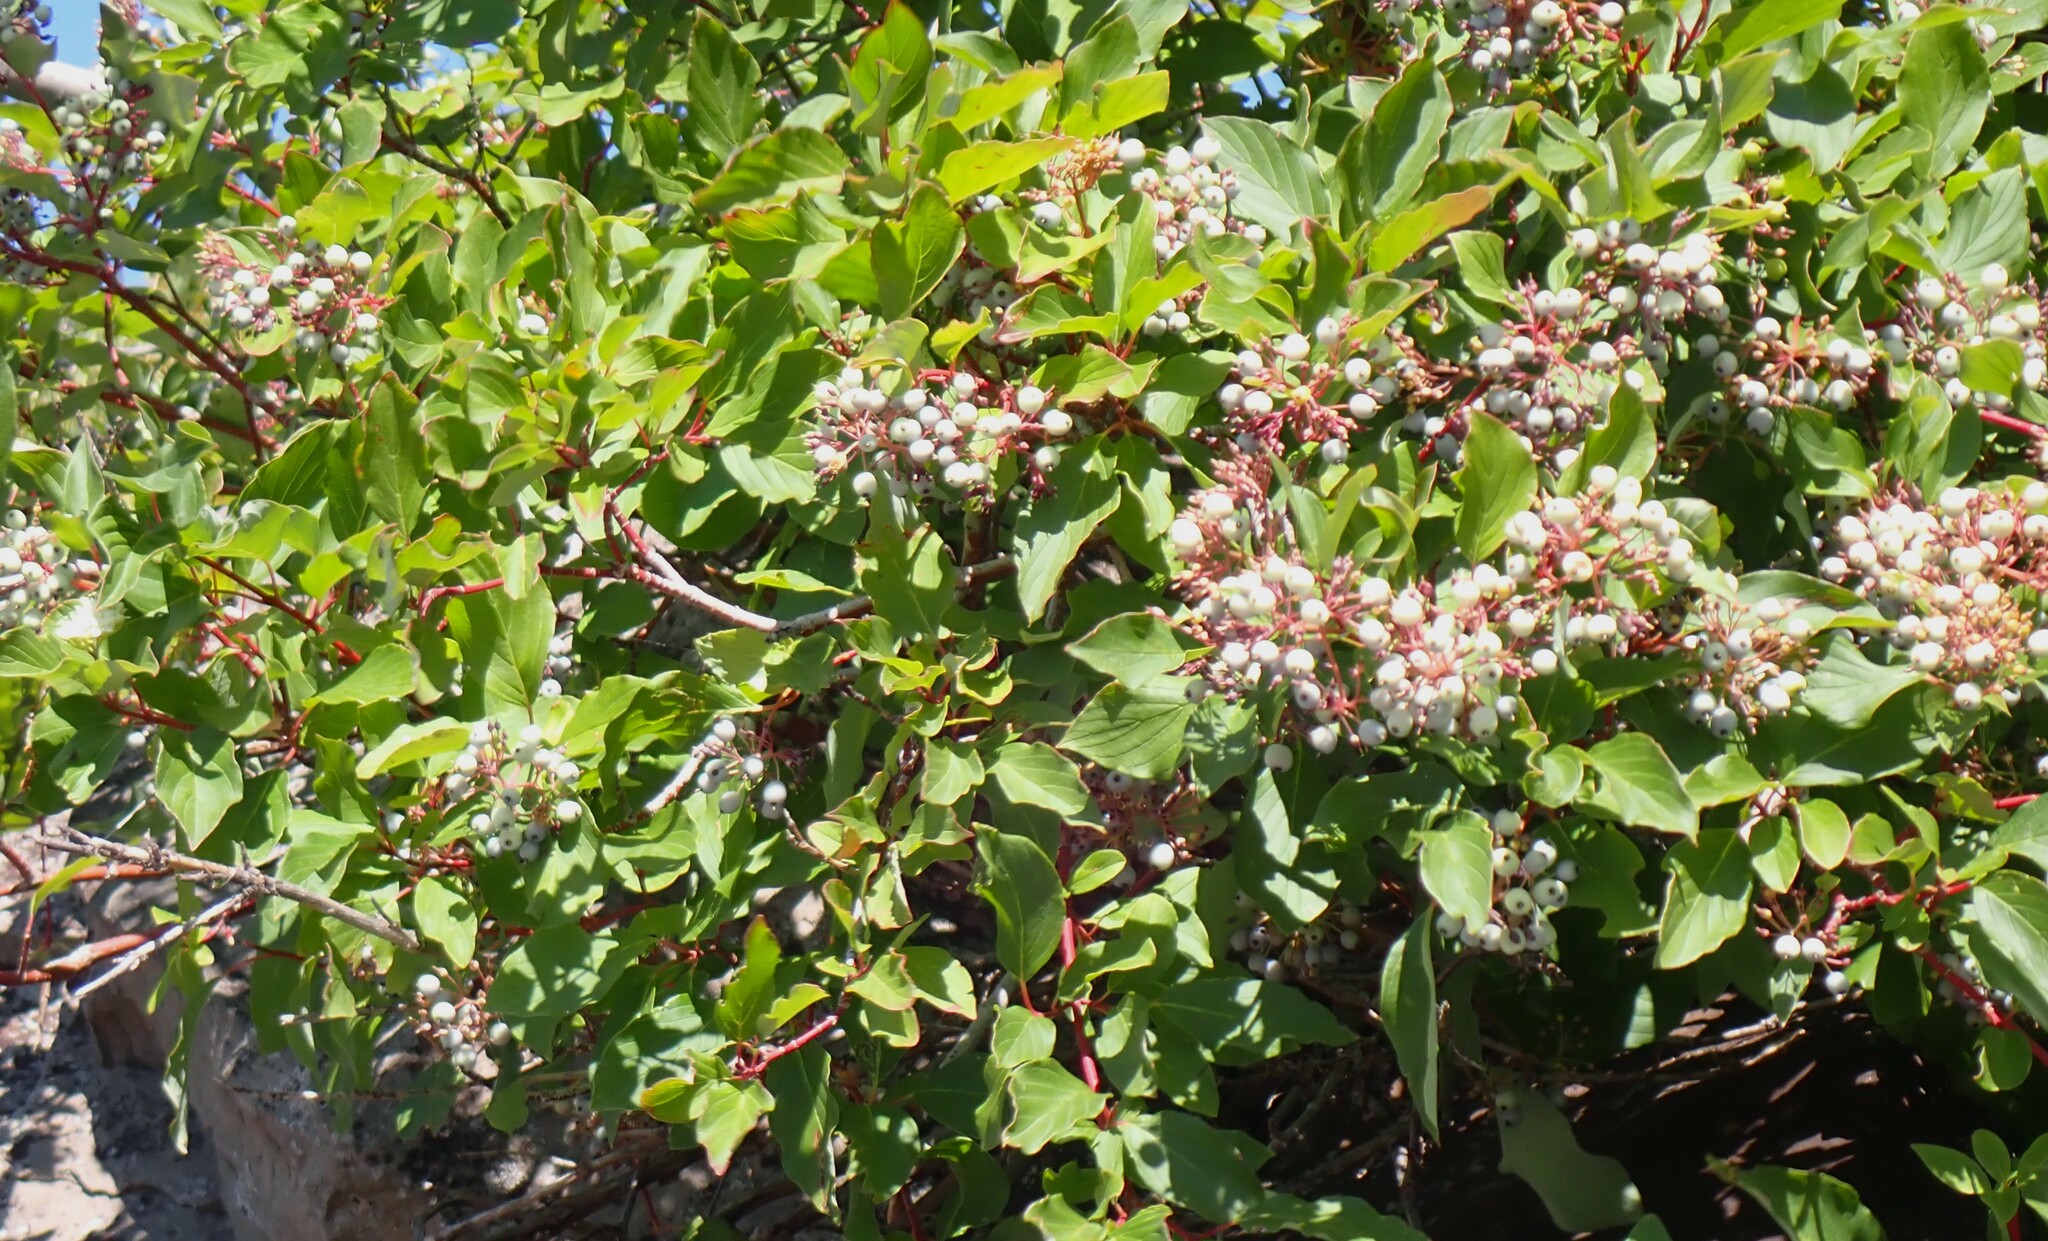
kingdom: Plantae
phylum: Tracheophyta
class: Magnoliopsida
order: Cornales
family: Cornaceae
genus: Cornus
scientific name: Cornus sericea
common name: Red-osier dogwood
